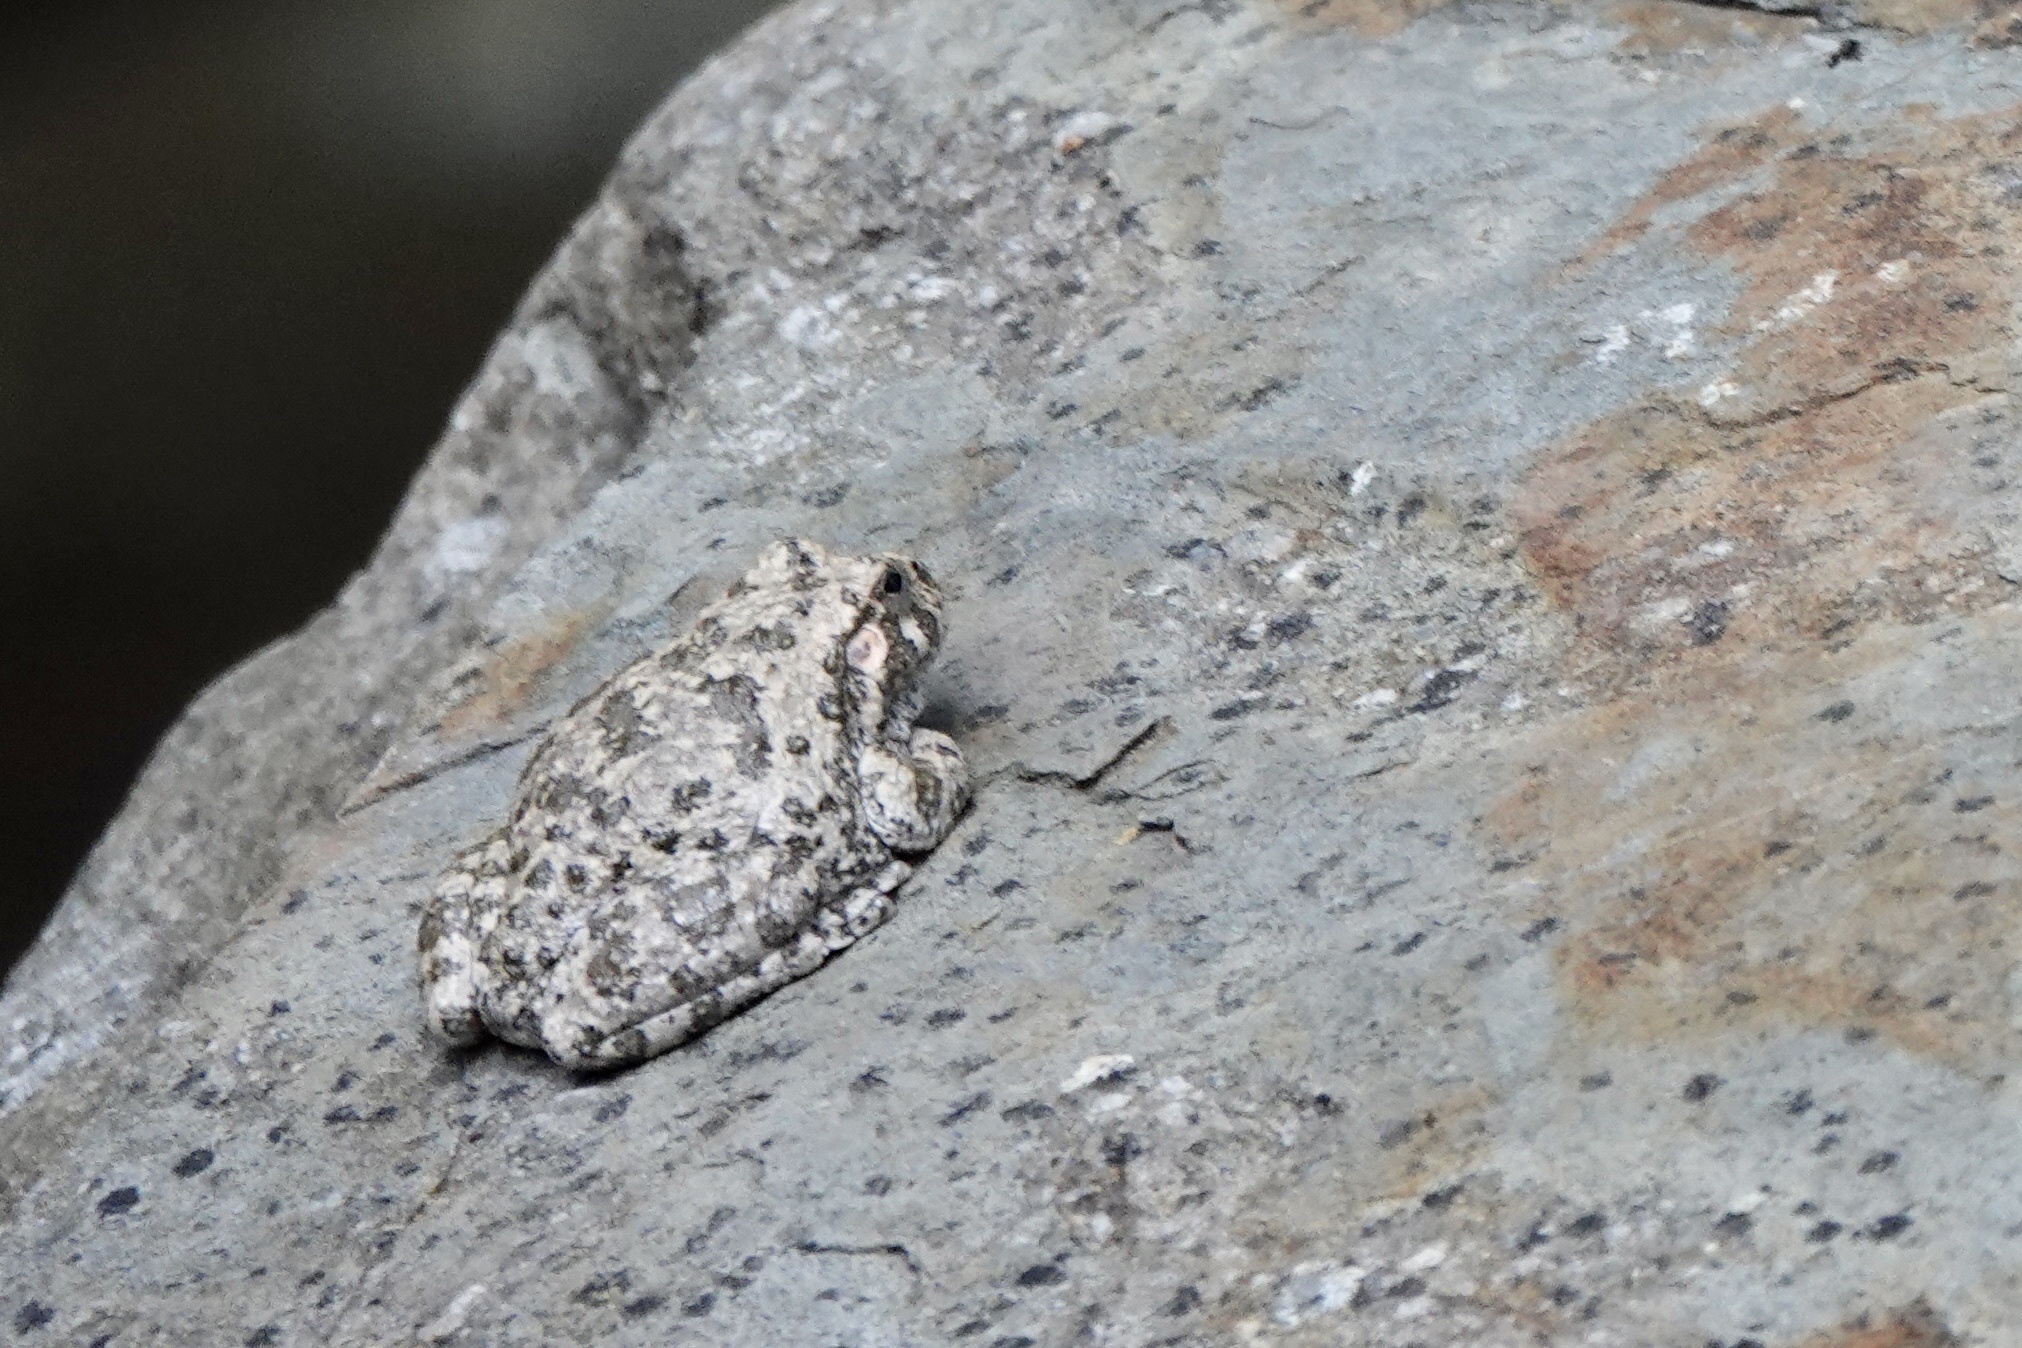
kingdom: Animalia
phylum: Chordata
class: Amphibia
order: Anura
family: Hylidae
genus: Dryophytes
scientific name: Dryophytes arenicolor
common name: Canyon treefrog
